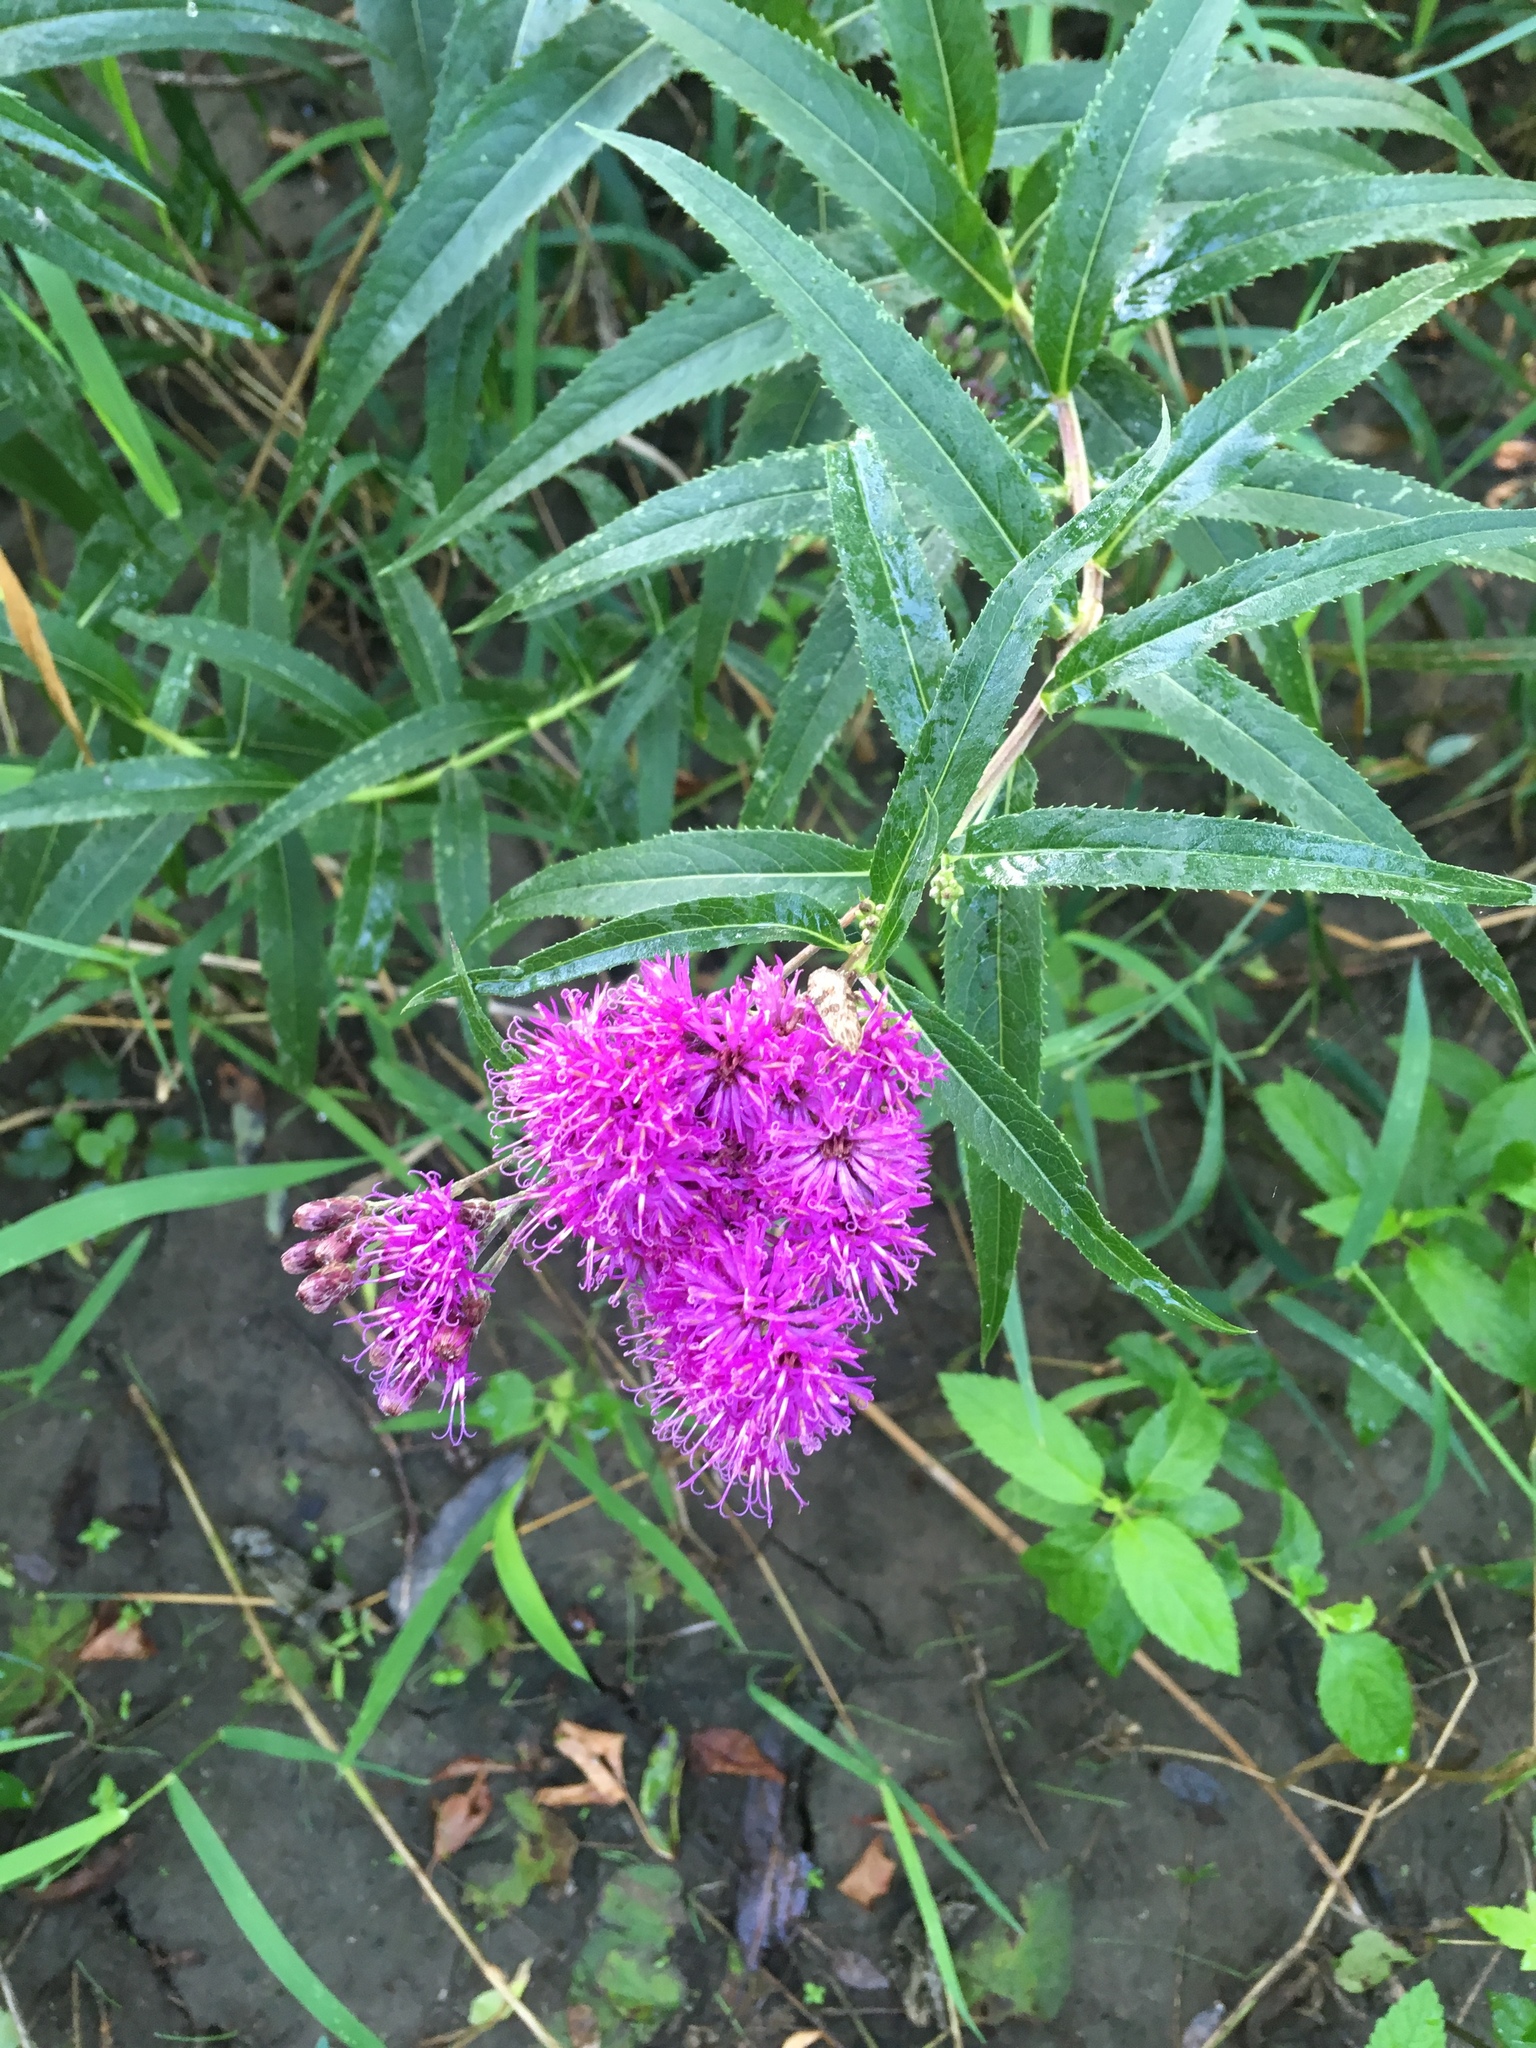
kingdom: Plantae
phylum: Tracheophyta
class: Magnoliopsida
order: Asterales
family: Asteraceae
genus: Vernonia
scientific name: Vernonia fasciculata
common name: Fascicled ironweed
